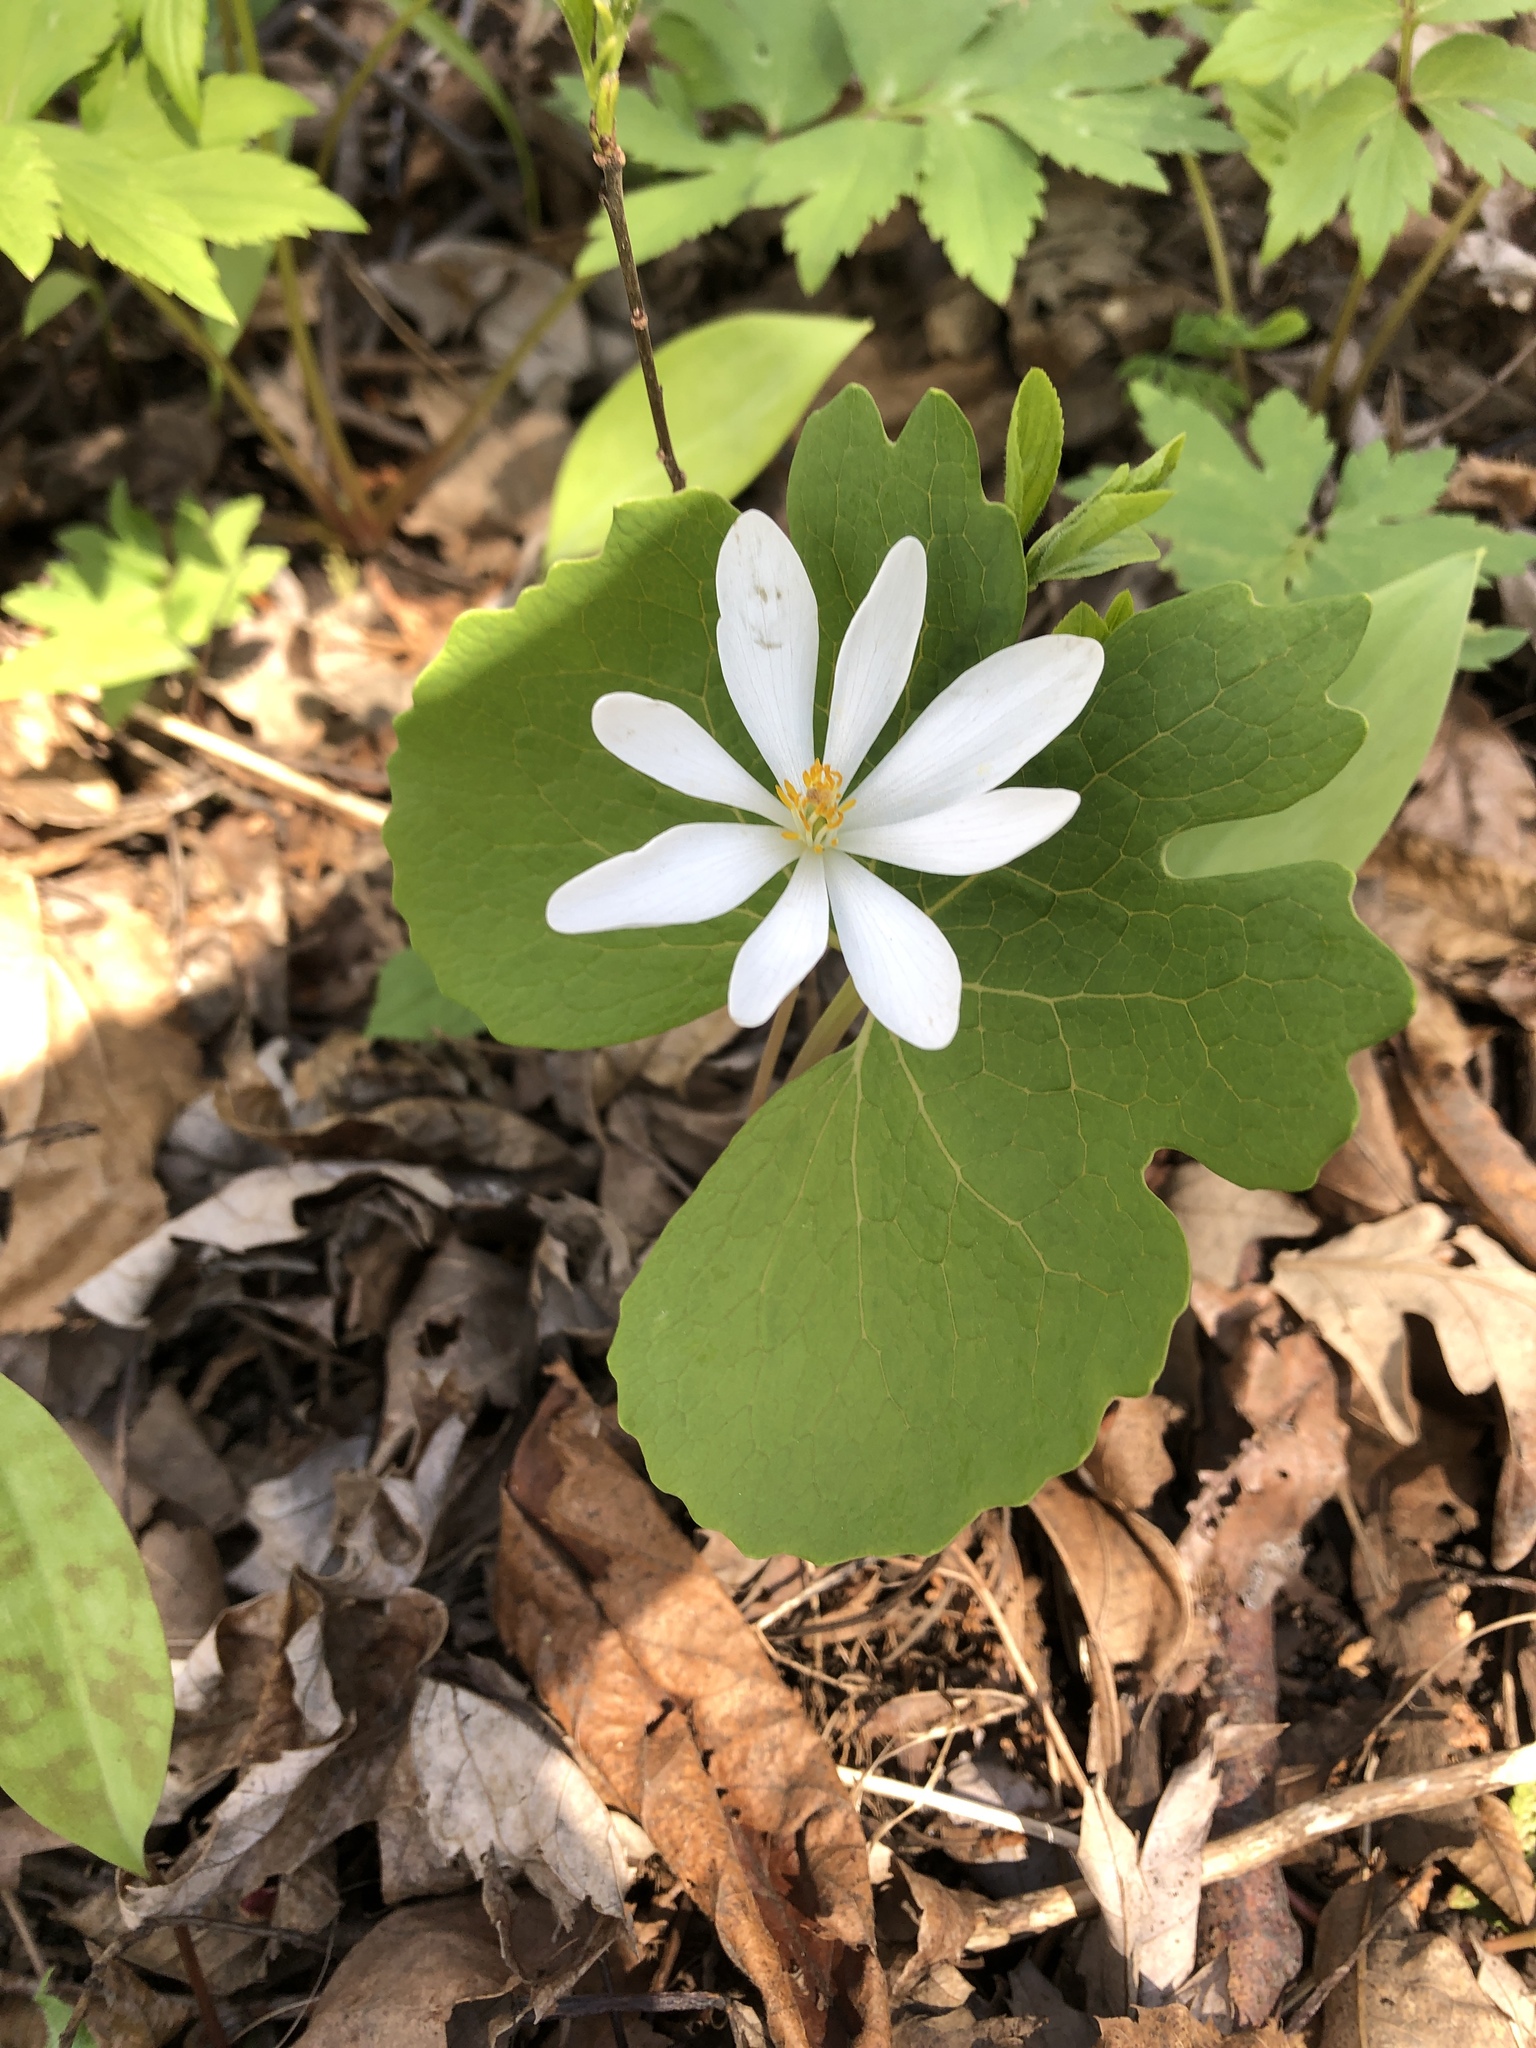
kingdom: Plantae
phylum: Tracheophyta
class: Magnoliopsida
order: Ranunculales
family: Papaveraceae
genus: Sanguinaria
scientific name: Sanguinaria canadensis
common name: Bloodroot
